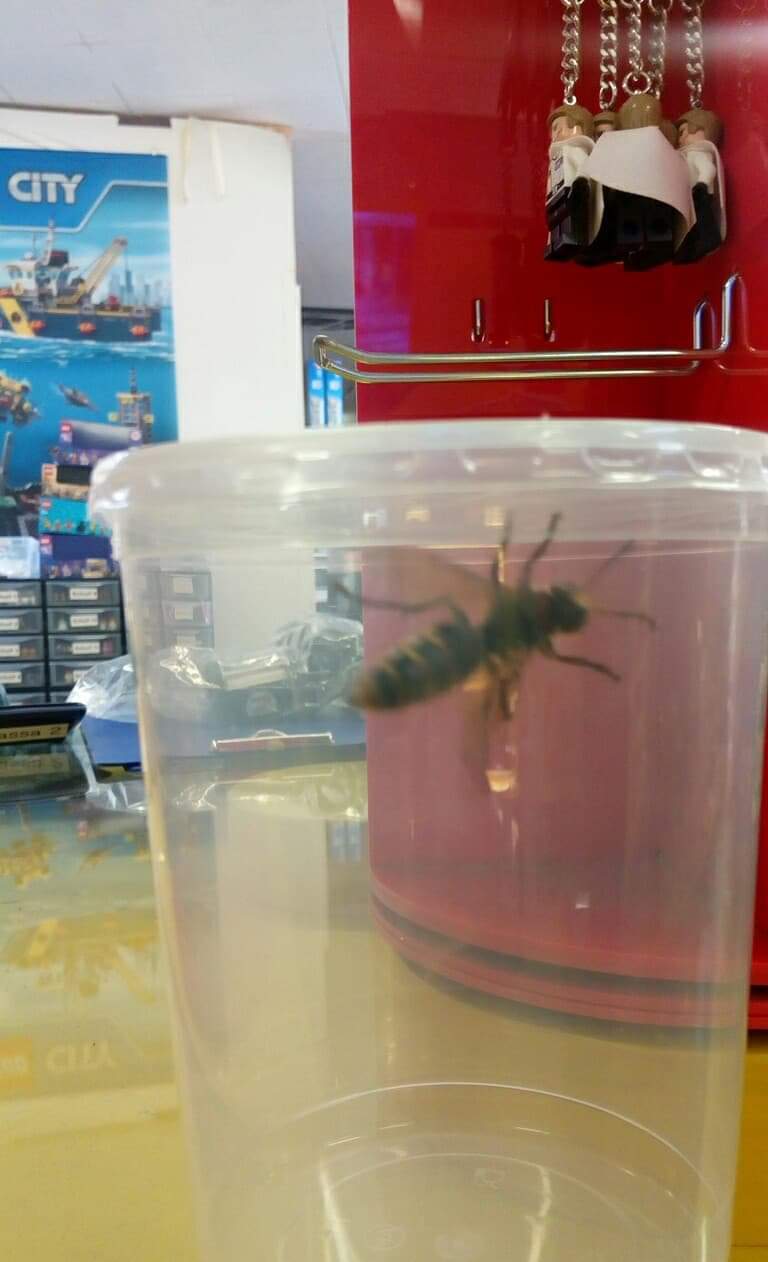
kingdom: Animalia
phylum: Arthropoda
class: Insecta
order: Hymenoptera
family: Vespidae
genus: Vespa
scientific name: Vespa crabro
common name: Hornet
